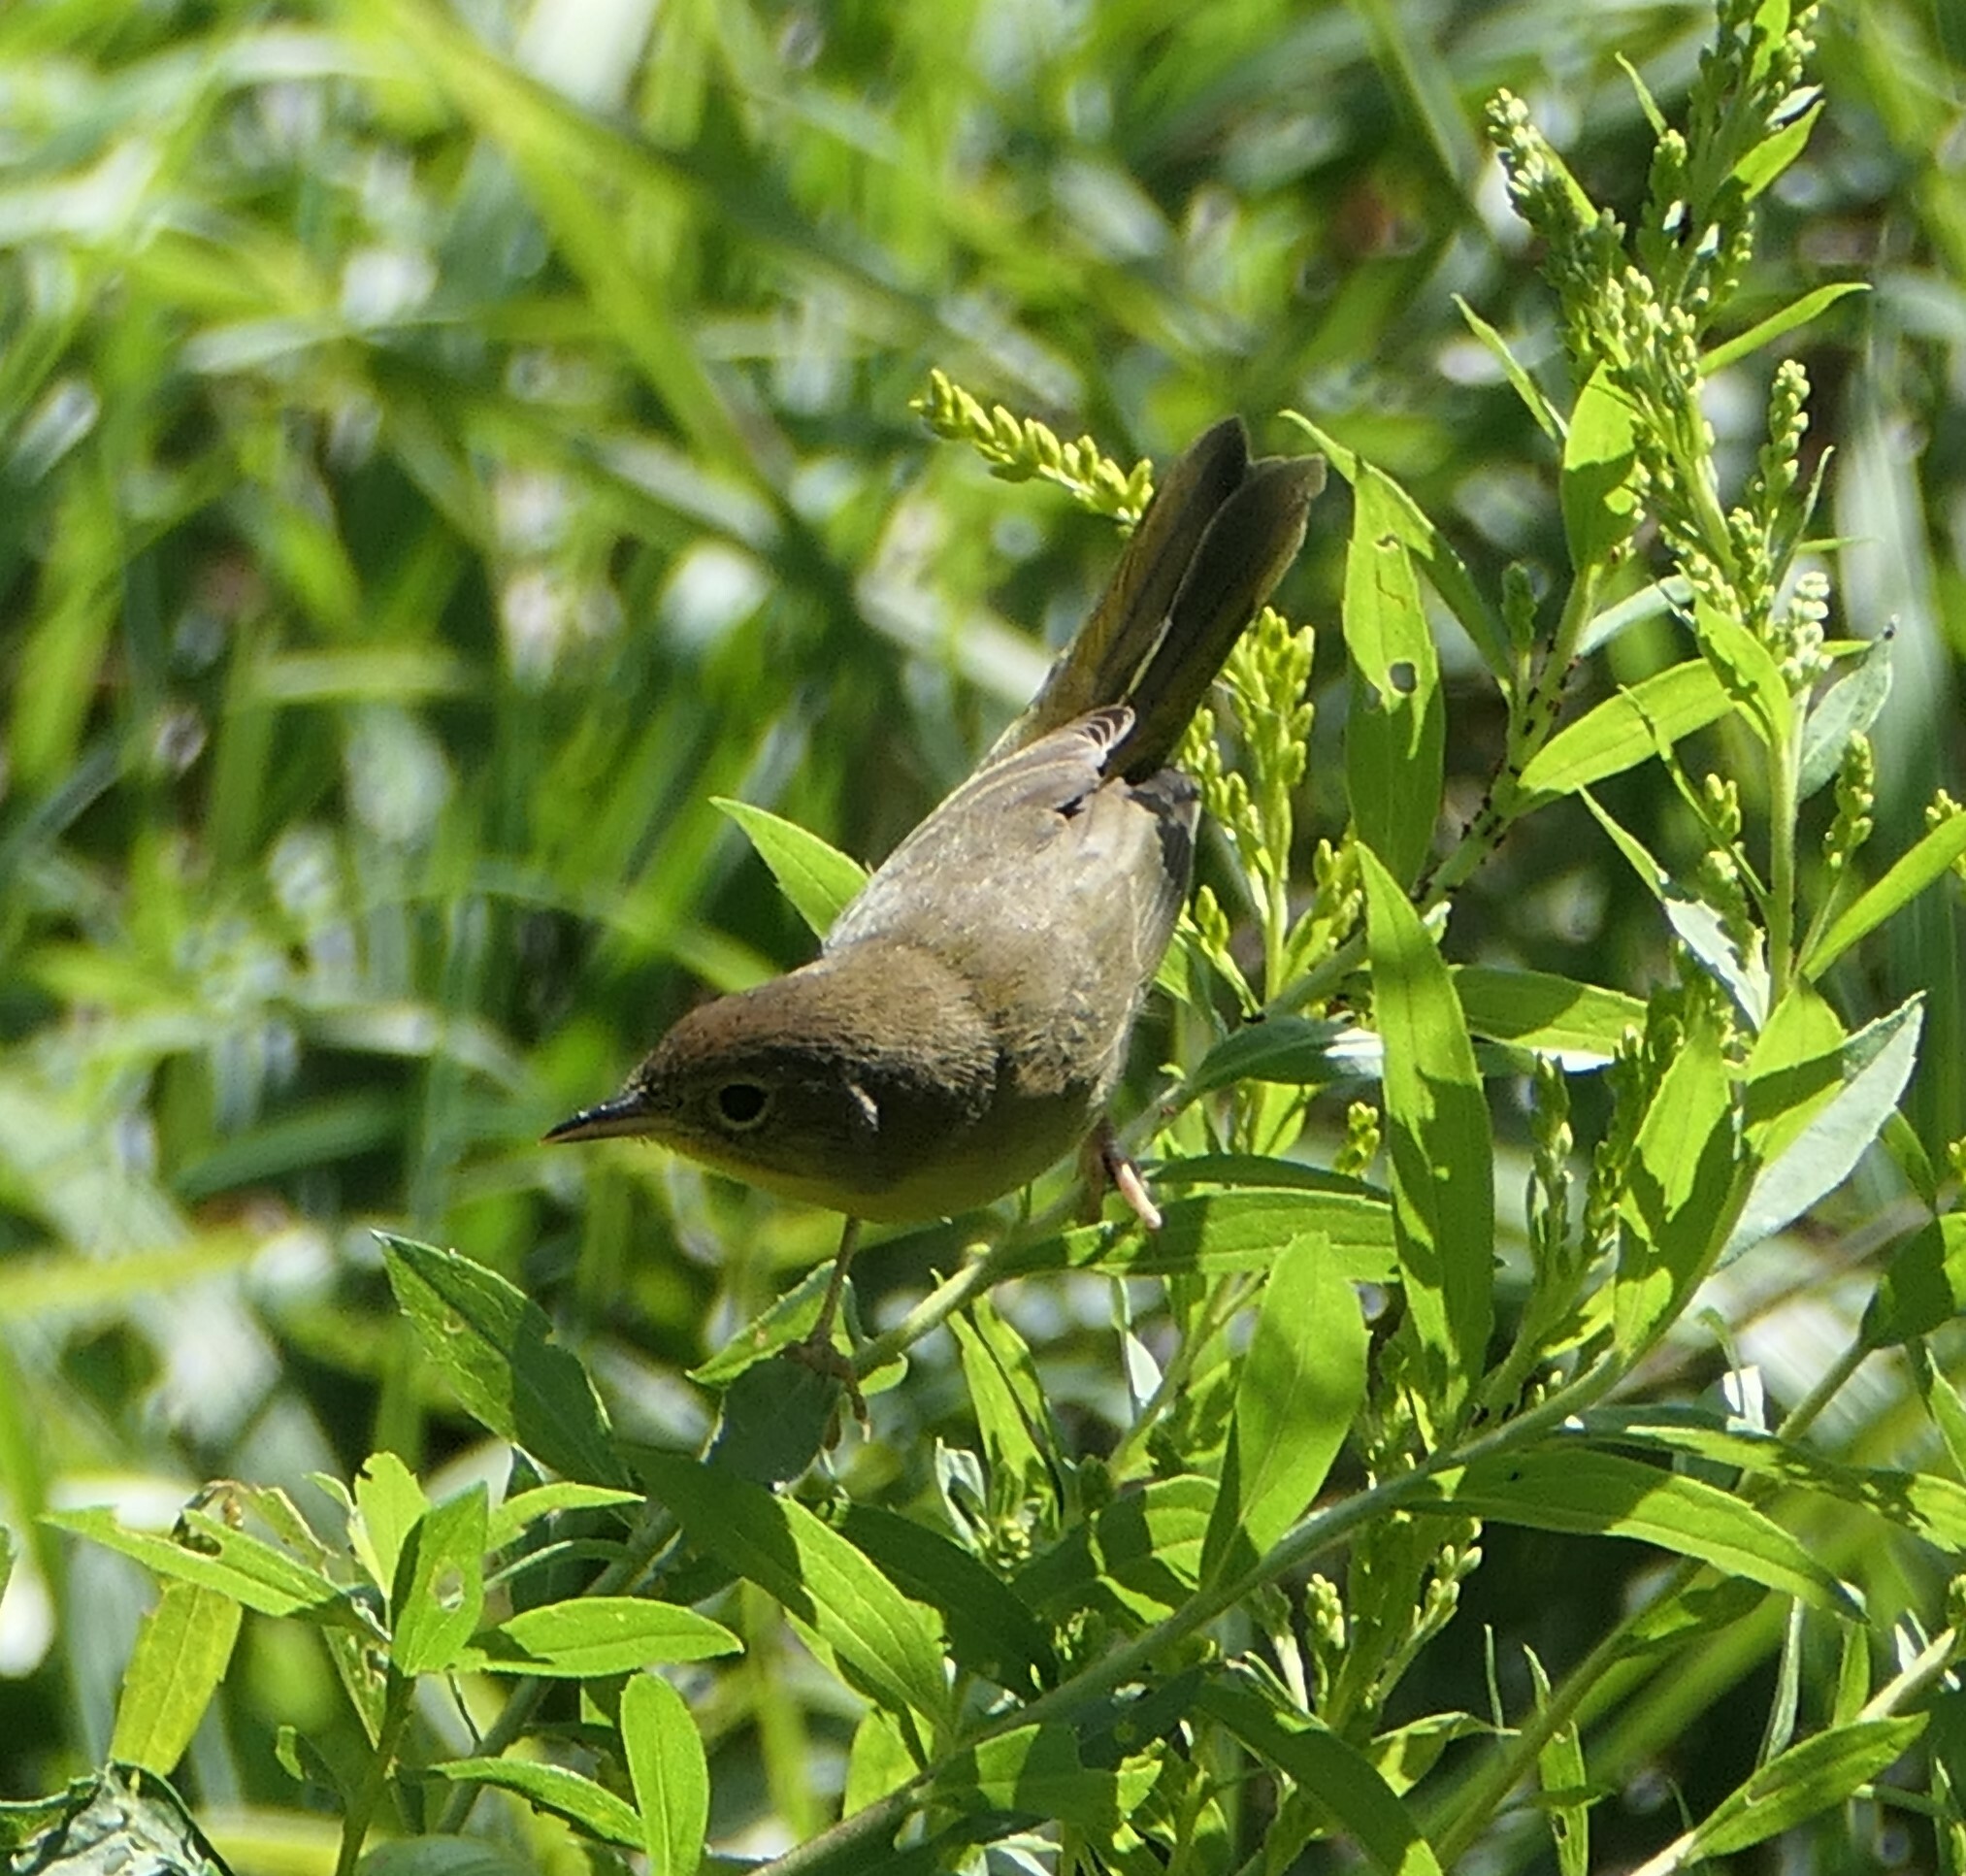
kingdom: Animalia
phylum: Chordata
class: Aves
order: Passeriformes
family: Parulidae
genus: Geothlypis
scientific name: Geothlypis trichas
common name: Common yellowthroat
